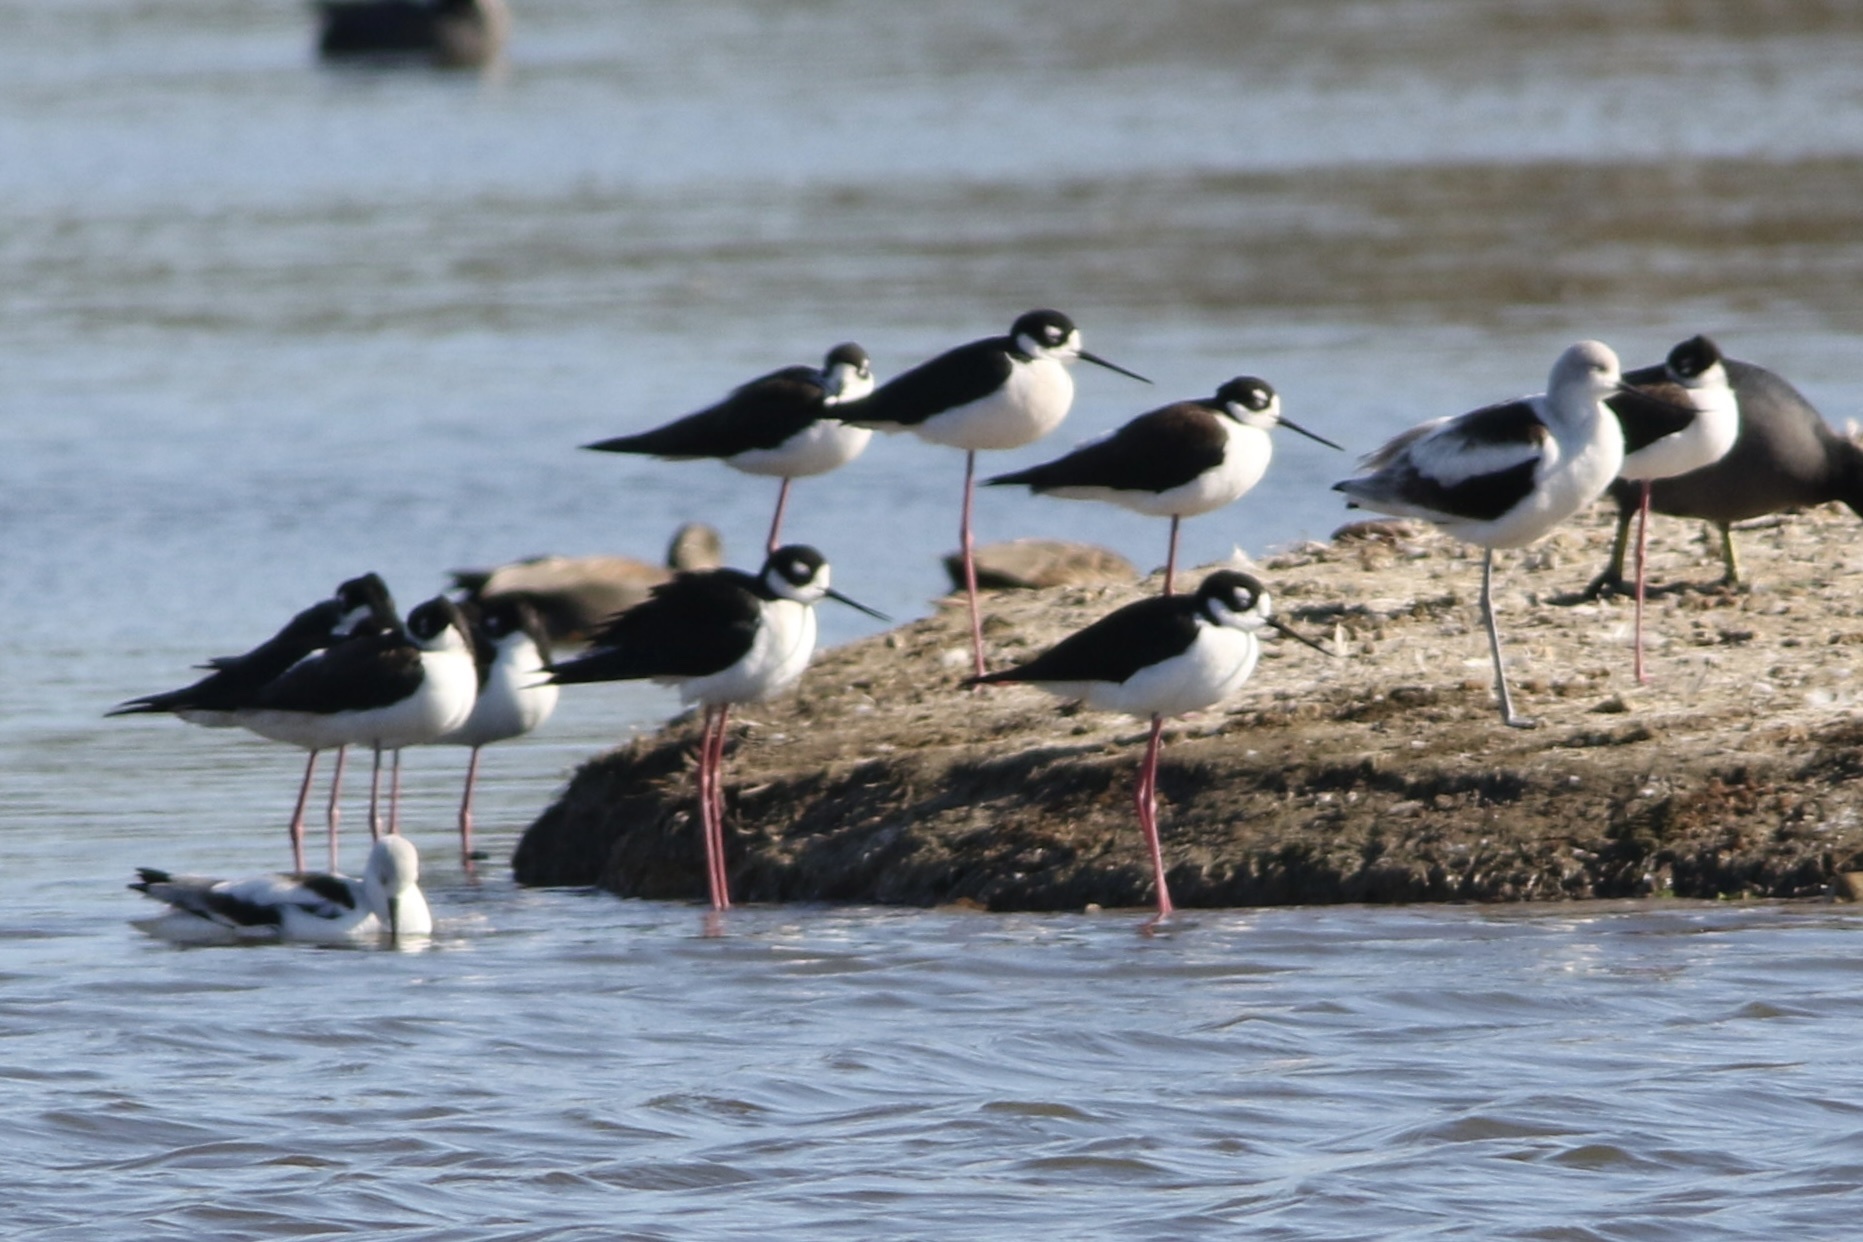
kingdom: Animalia
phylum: Chordata
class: Aves
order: Charadriiformes
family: Recurvirostridae
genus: Himantopus
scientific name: Himantopus mexicanus
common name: Black-necked stilt
